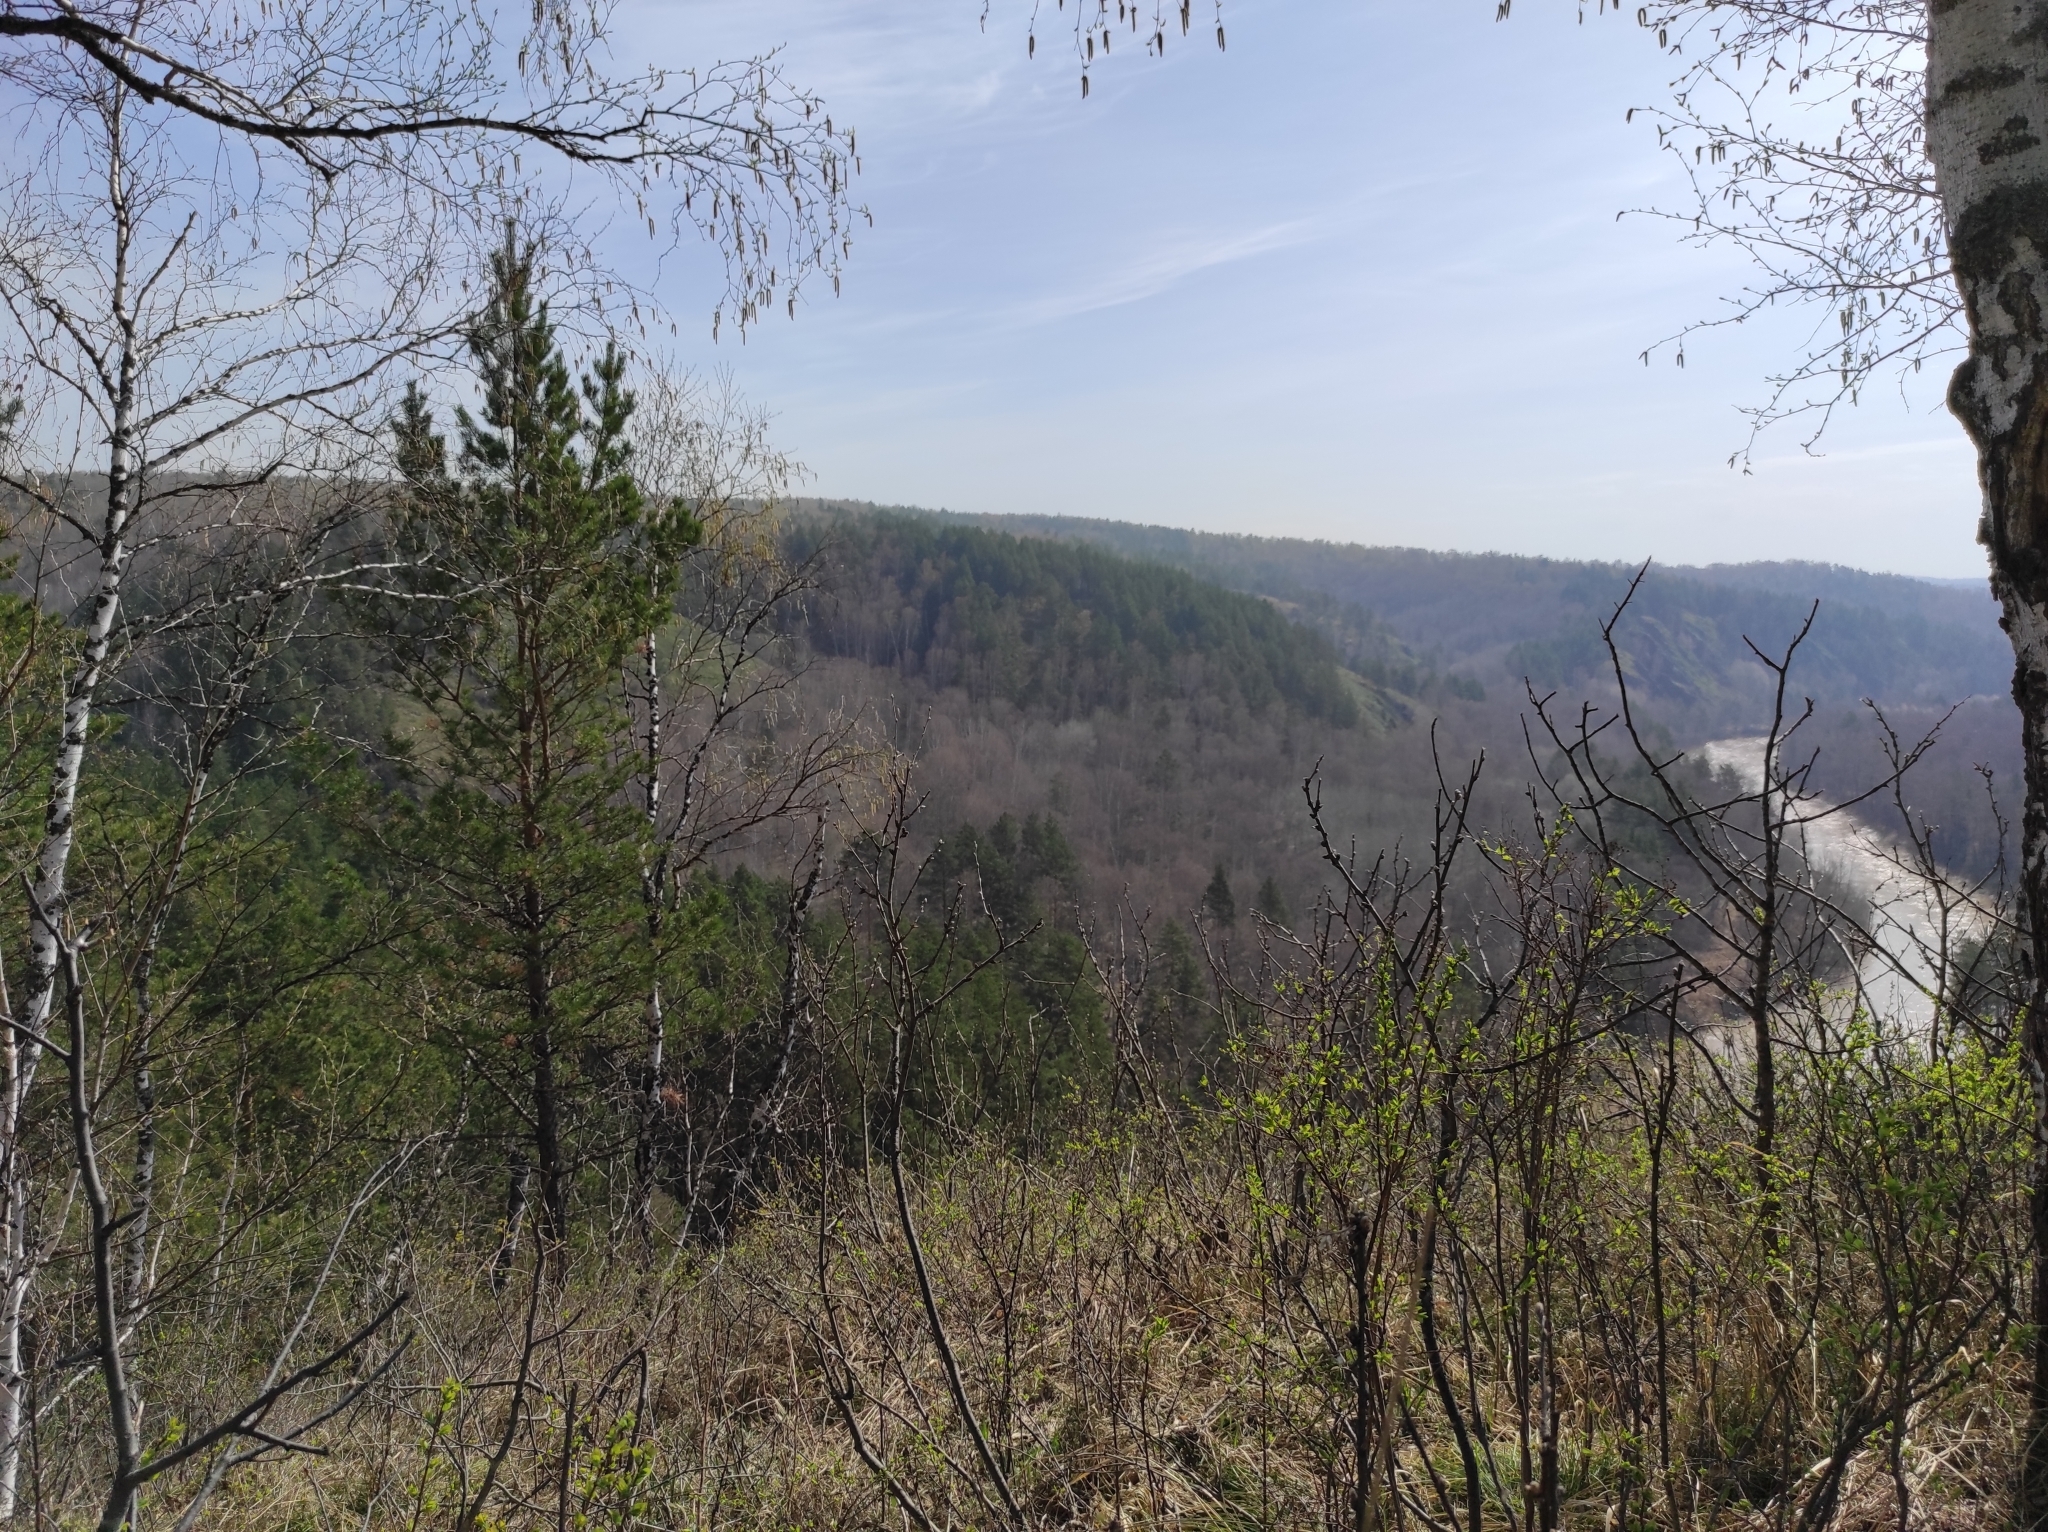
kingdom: Plantae
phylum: Tracheophyta
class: Pinopsida
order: Pinales
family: Pinaceae
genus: Pinus
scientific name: Pinus sylvestris
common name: Scots pine
